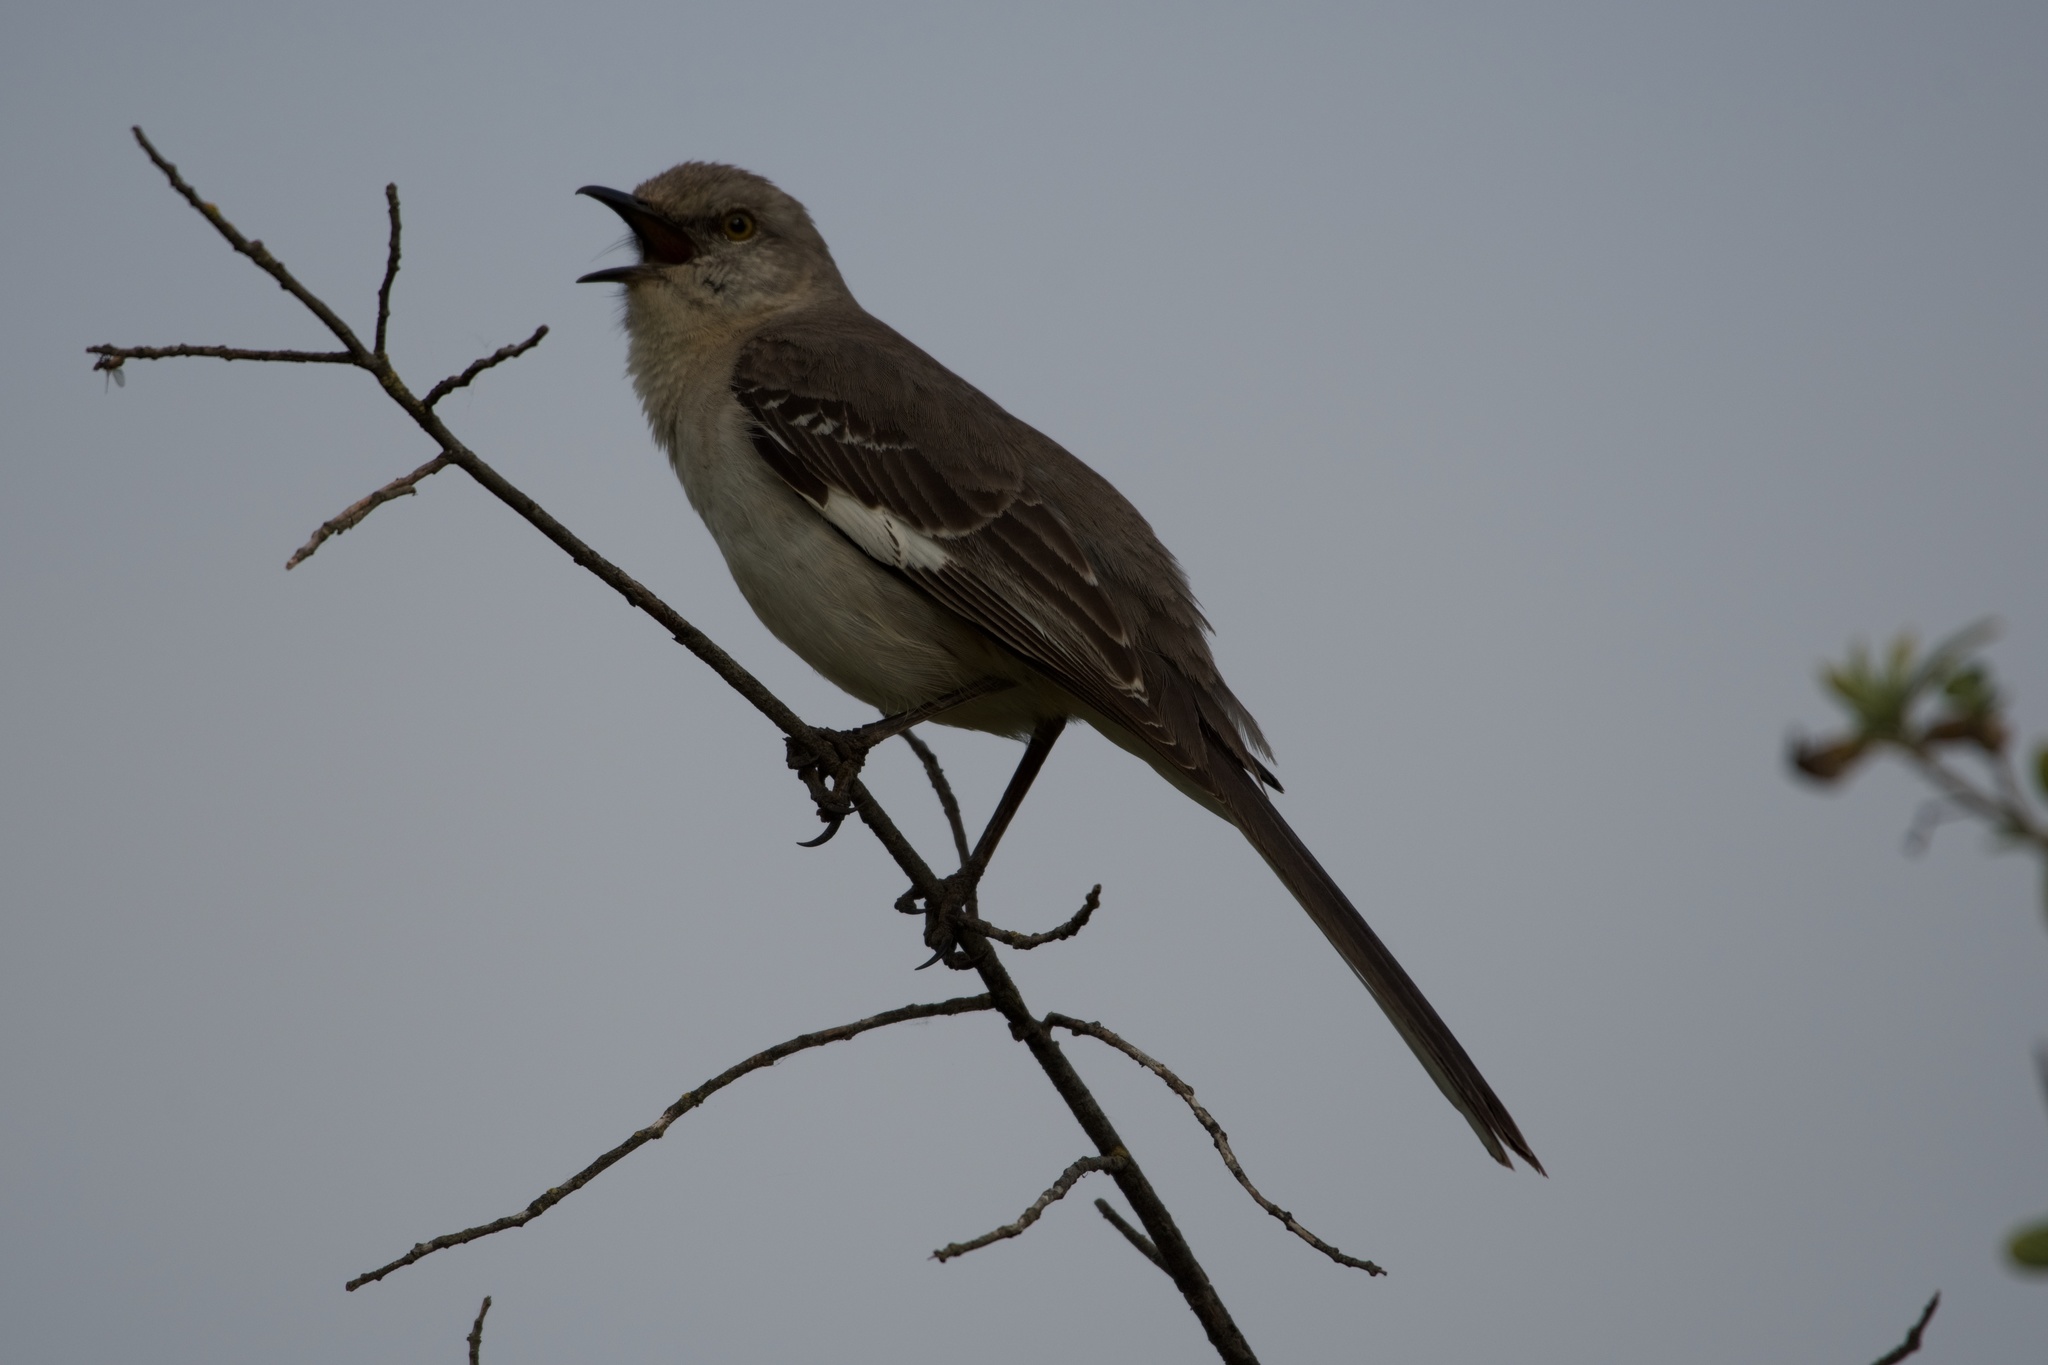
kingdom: Animalia
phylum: Chordata
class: Aves
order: Passeriformes
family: Mimidae
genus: Mimus
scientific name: Mimus polyglottos
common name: Northern mockingbird
